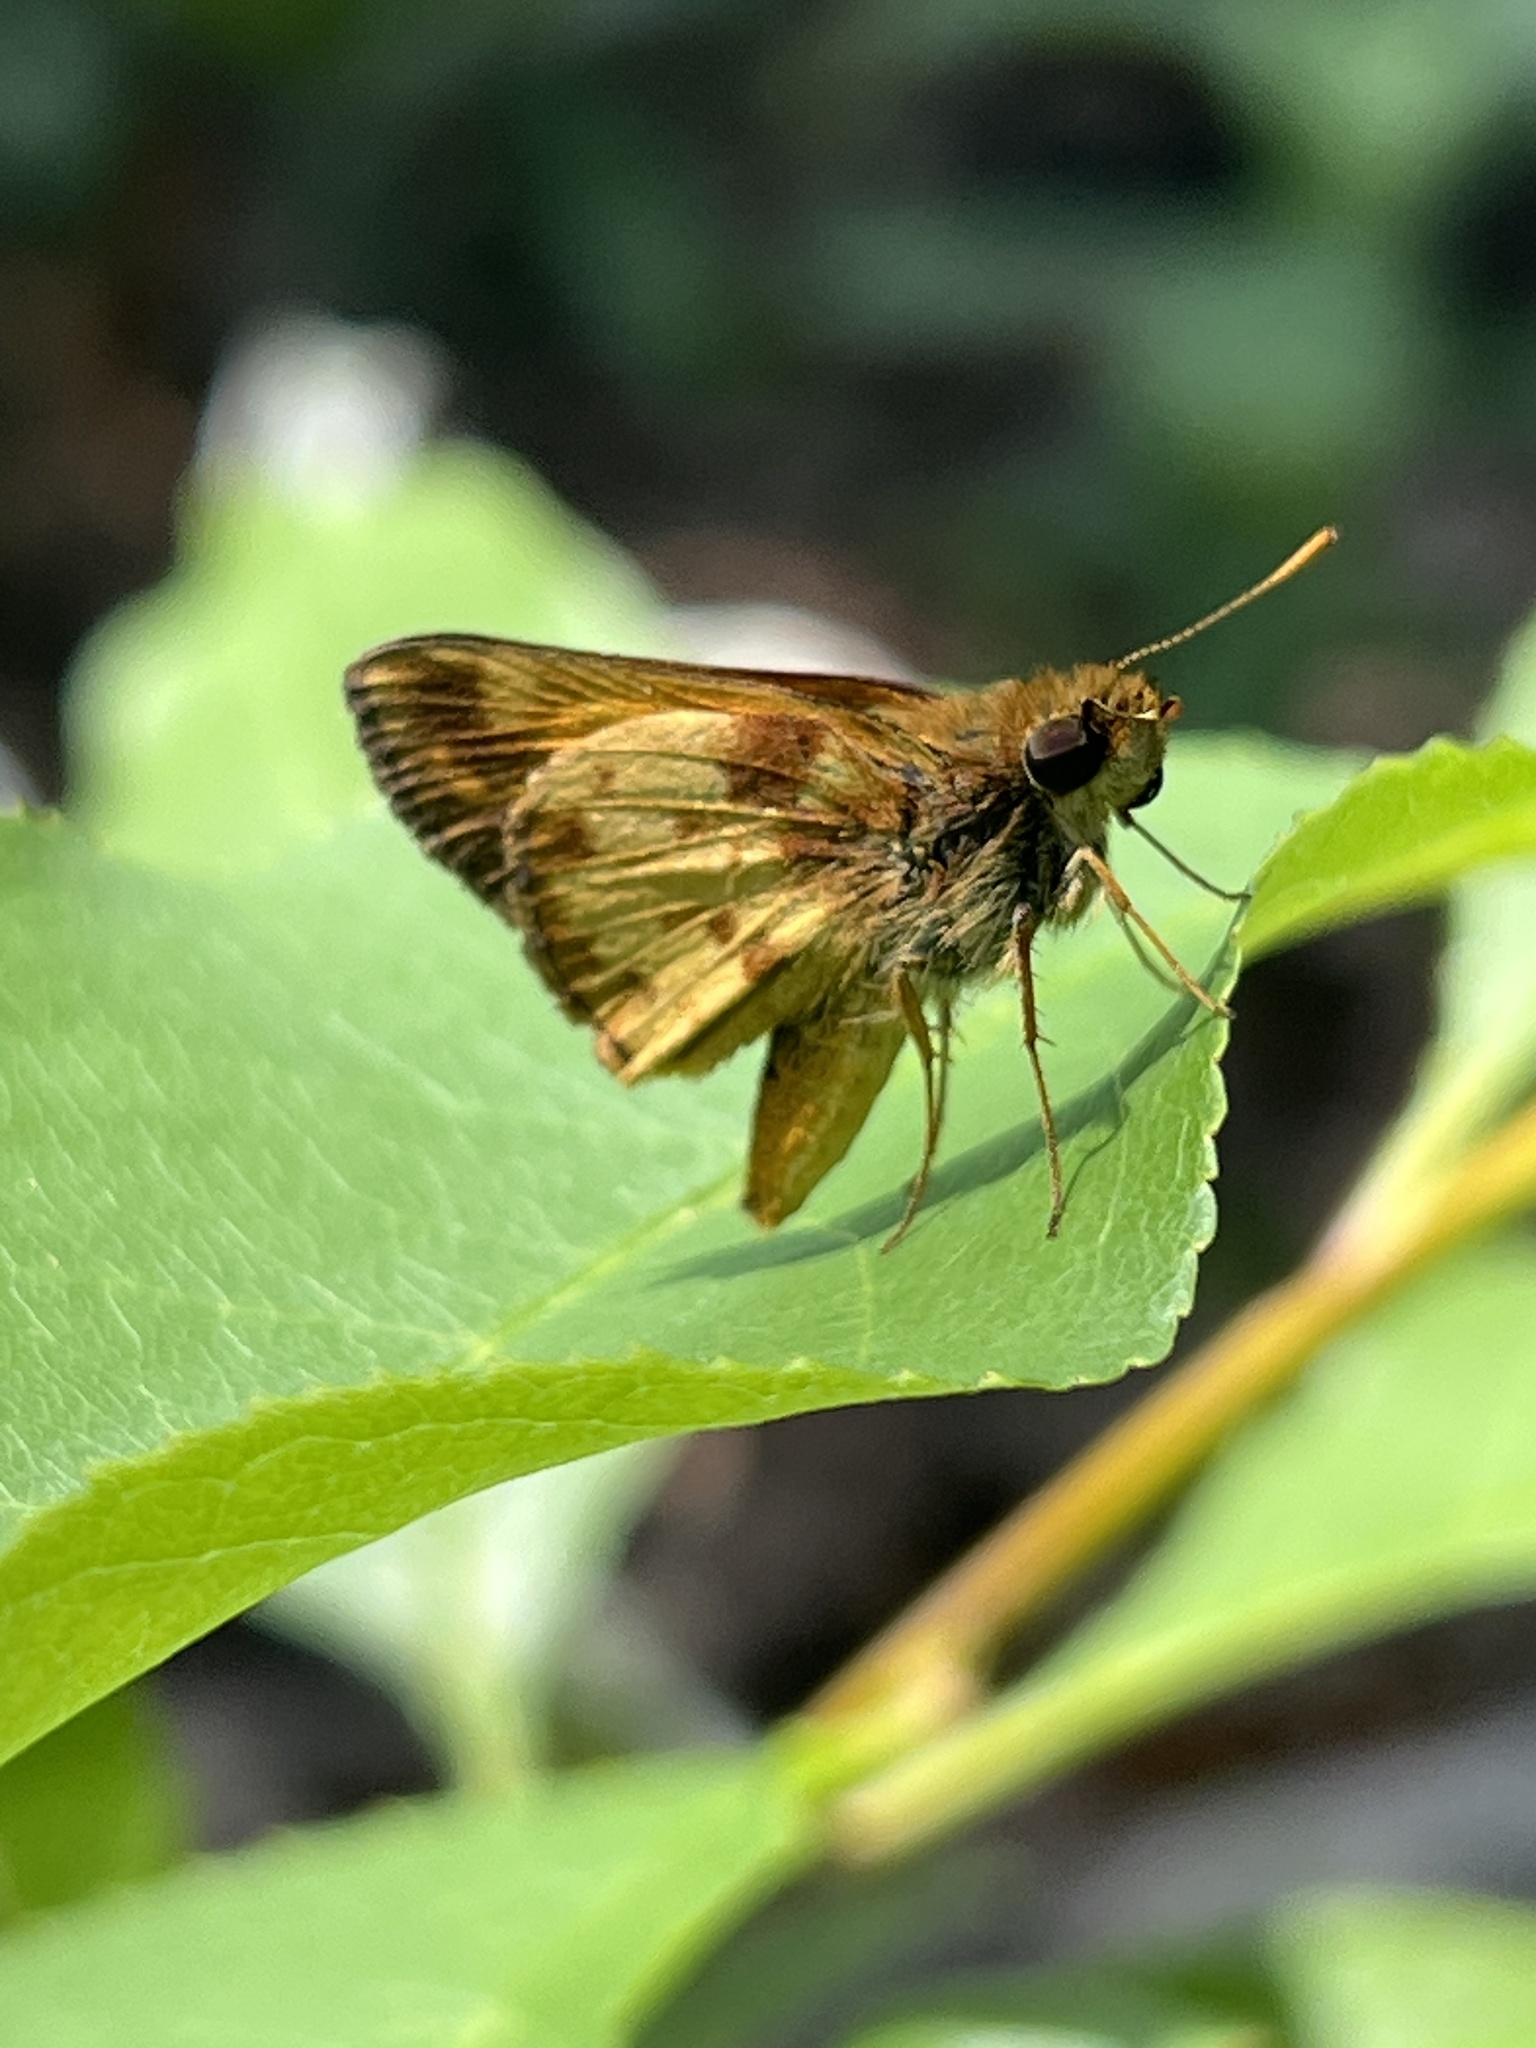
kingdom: Animalia
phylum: Arthropoda
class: Insecta
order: Lepidoptera
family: Hesperiidae
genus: Lon
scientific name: Lon zabulon
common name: Zabulon skipper
